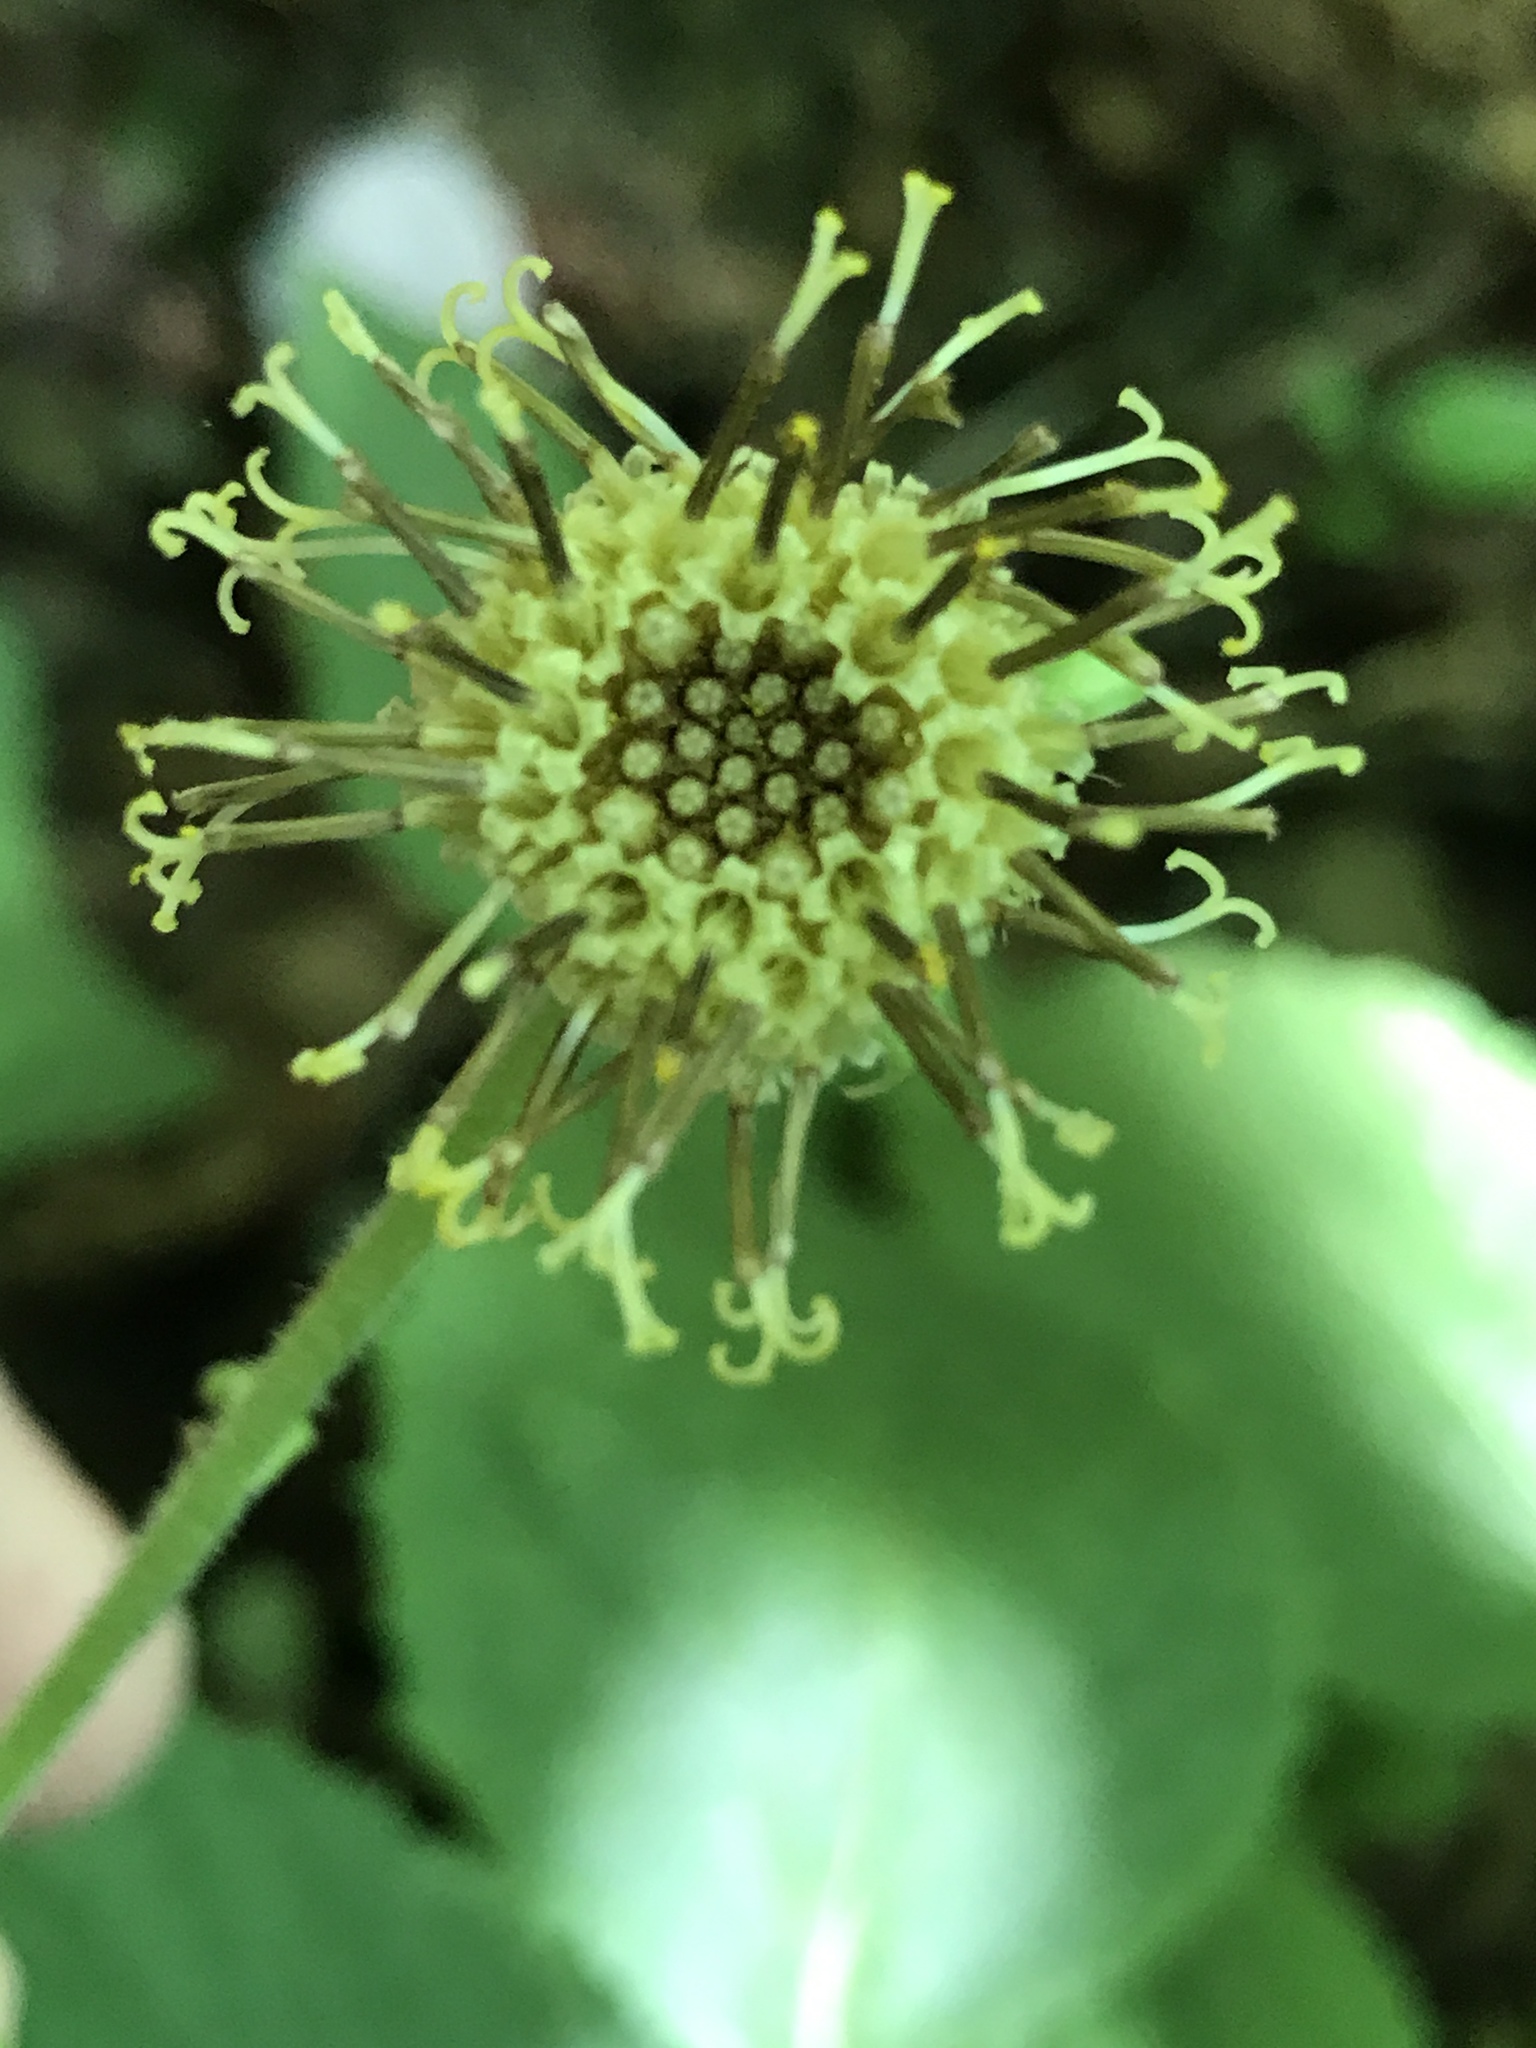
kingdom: Plantae
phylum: Tracheophyta
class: Magnoliopsida
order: Asterales
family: Asteraceae
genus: Rugelia
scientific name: Rugelia nudicaulis
